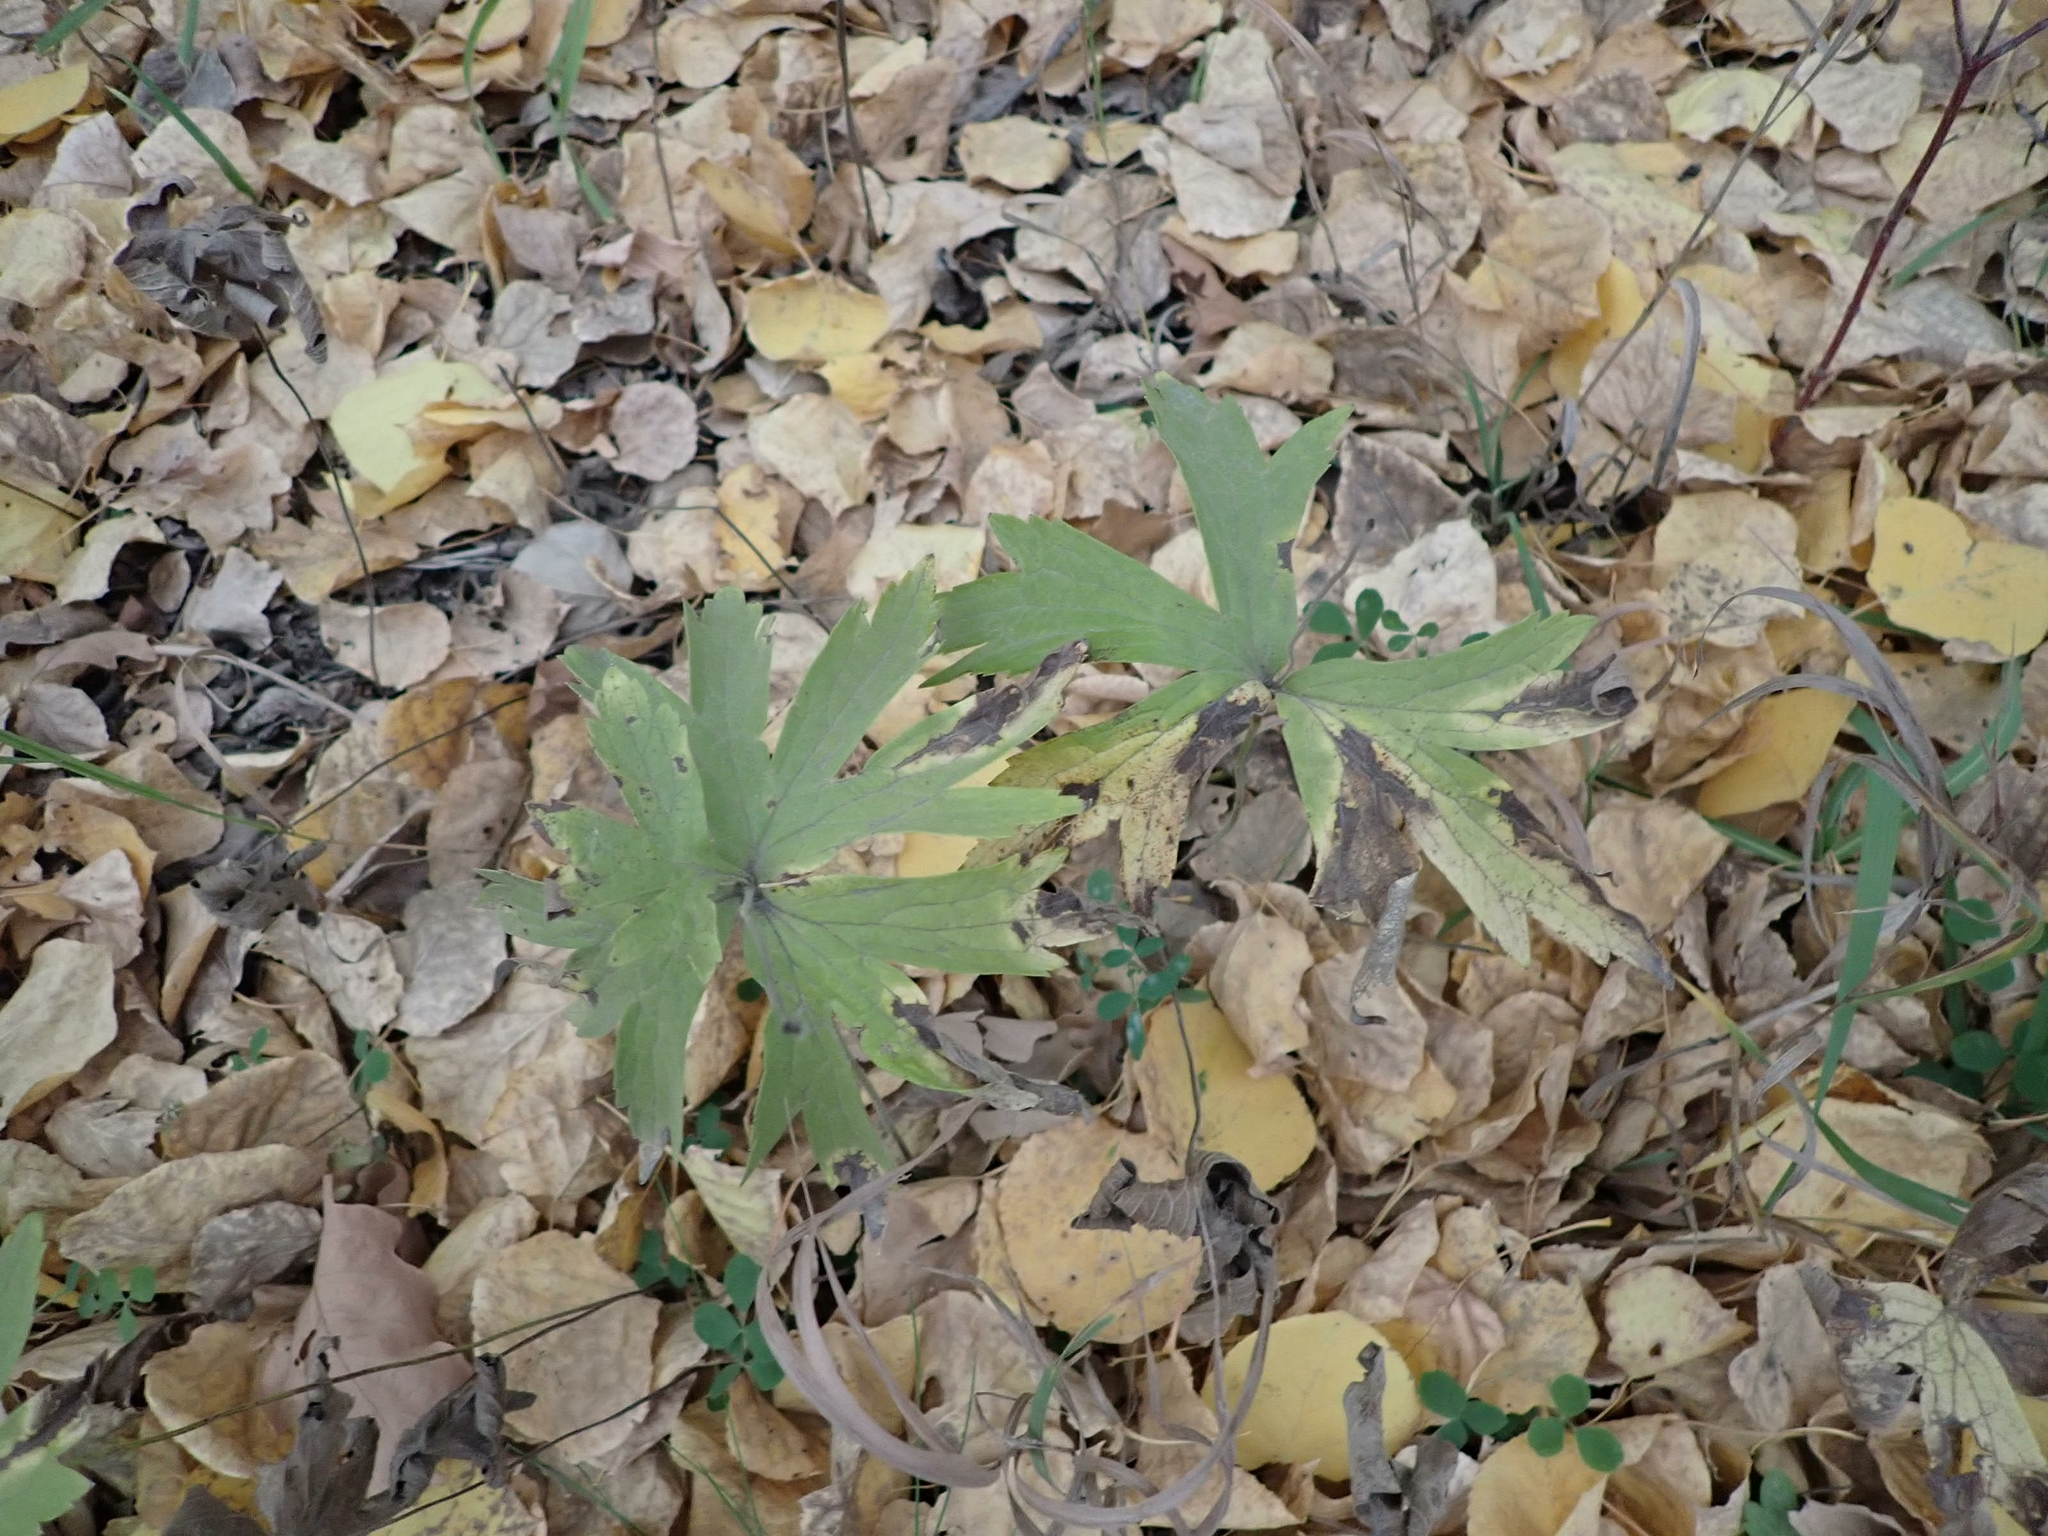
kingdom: Plantae
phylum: Tracheophyta
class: Magnoliopsida
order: Ranunculales
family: Ranunculaceae
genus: Anemonastrum
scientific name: Anemonastrum canadense
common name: Canada anemone
